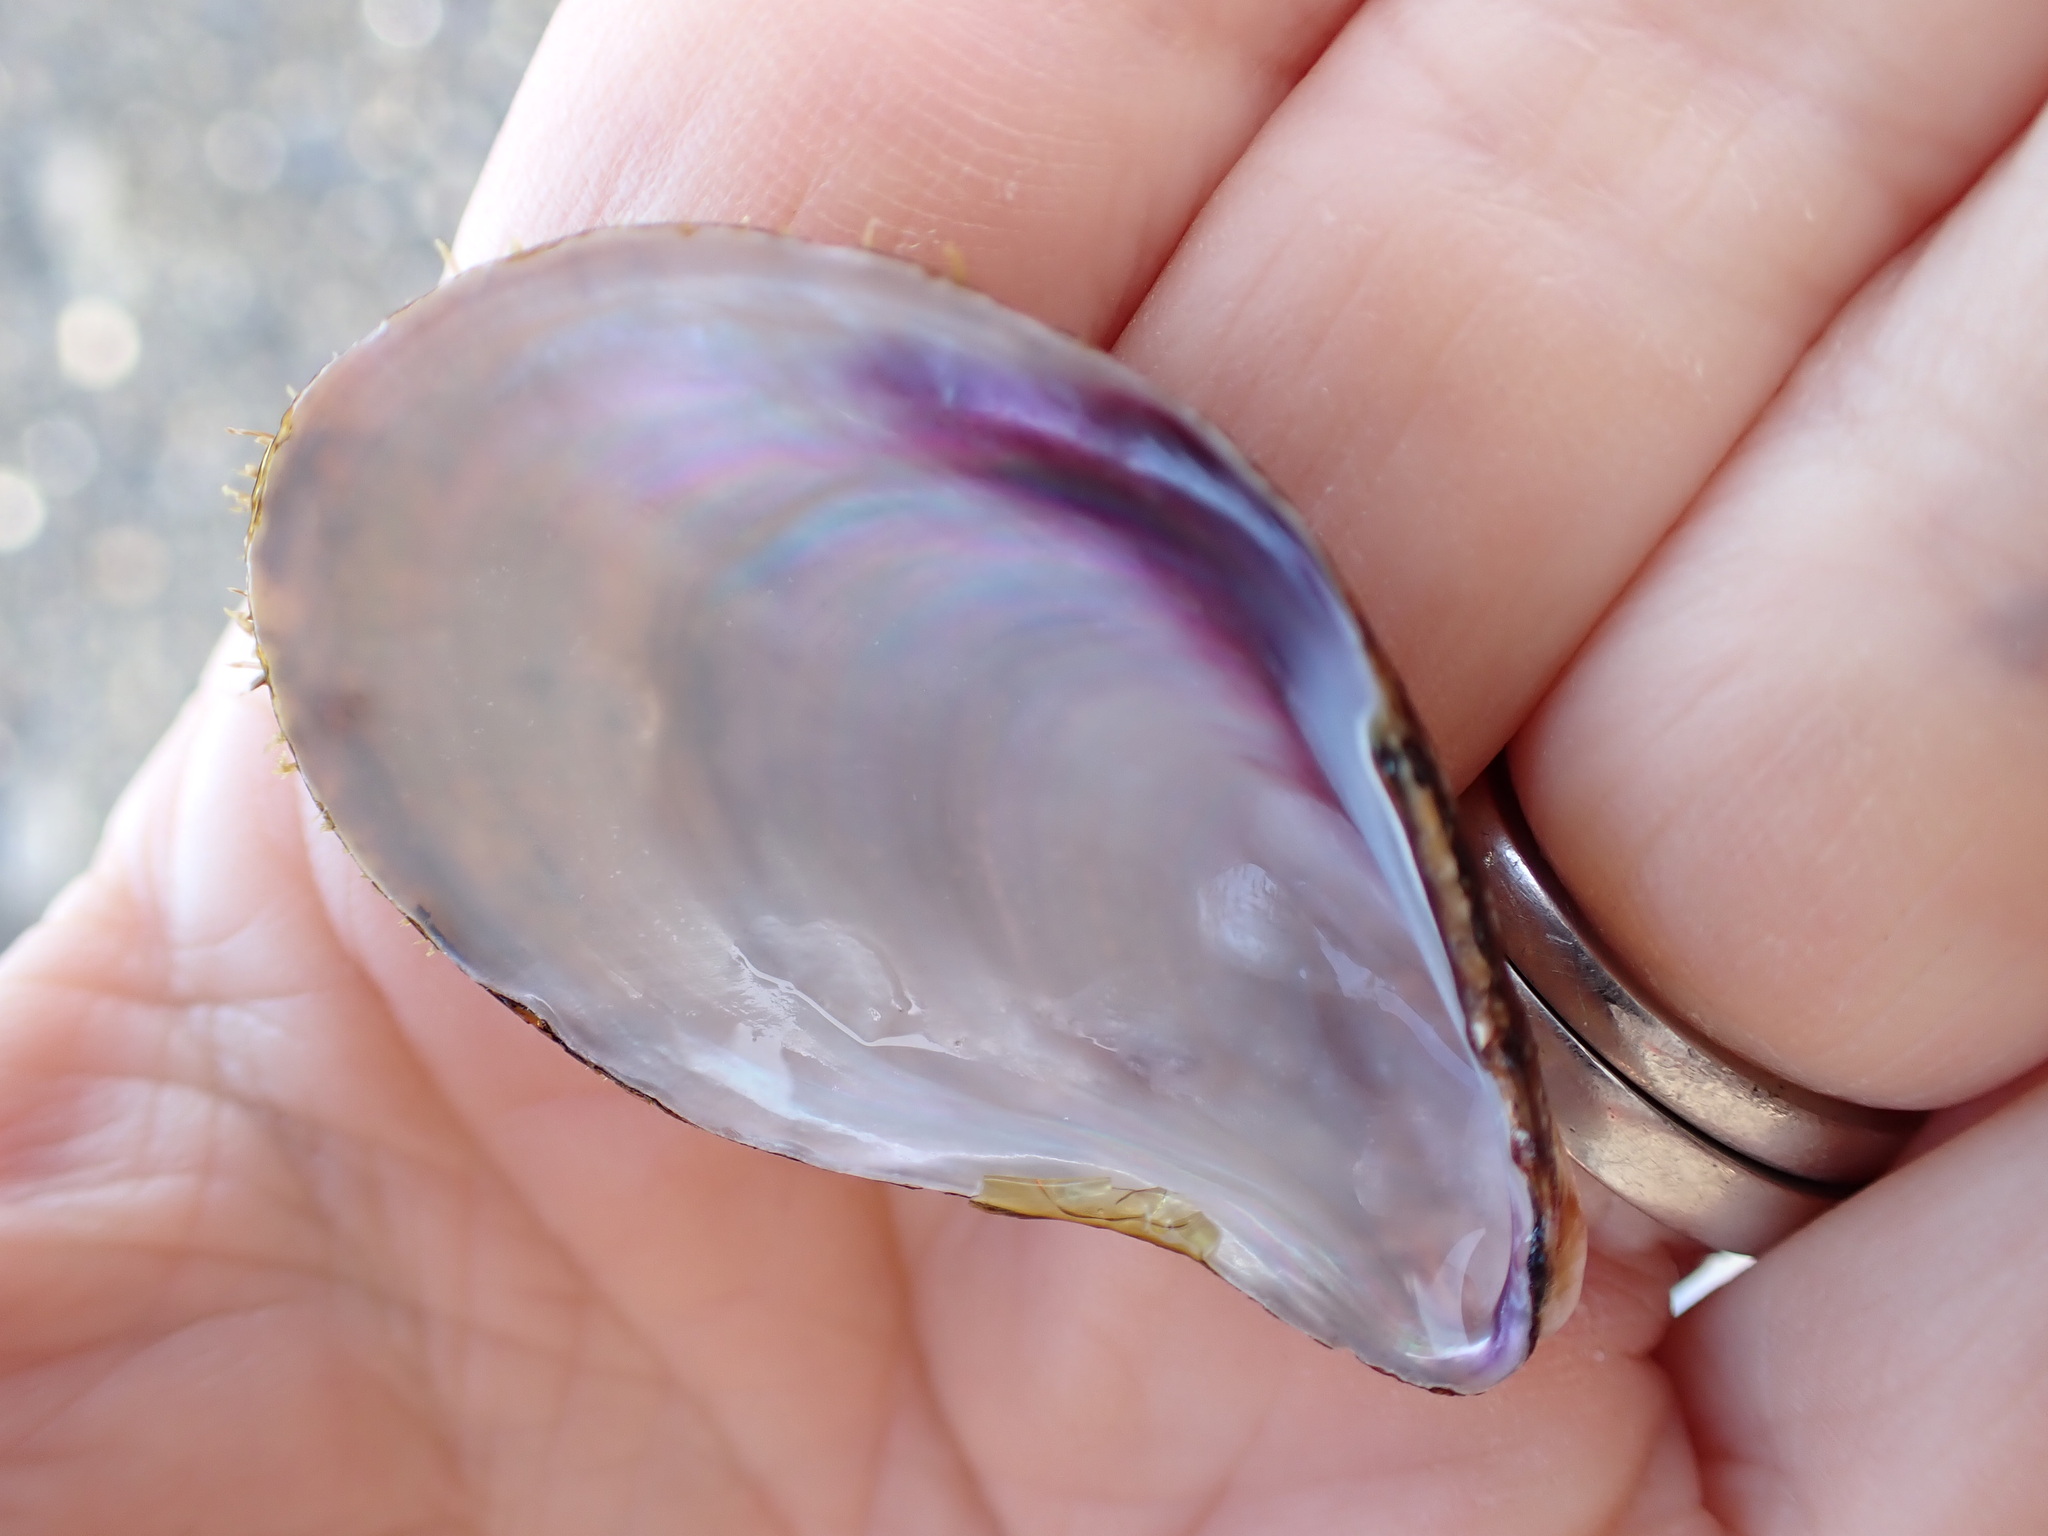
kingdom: Animalia
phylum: Mollusca
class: Bivalvia
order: Mytilida
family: Mytilidae
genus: Modiolus
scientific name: Modiolus areolatus
